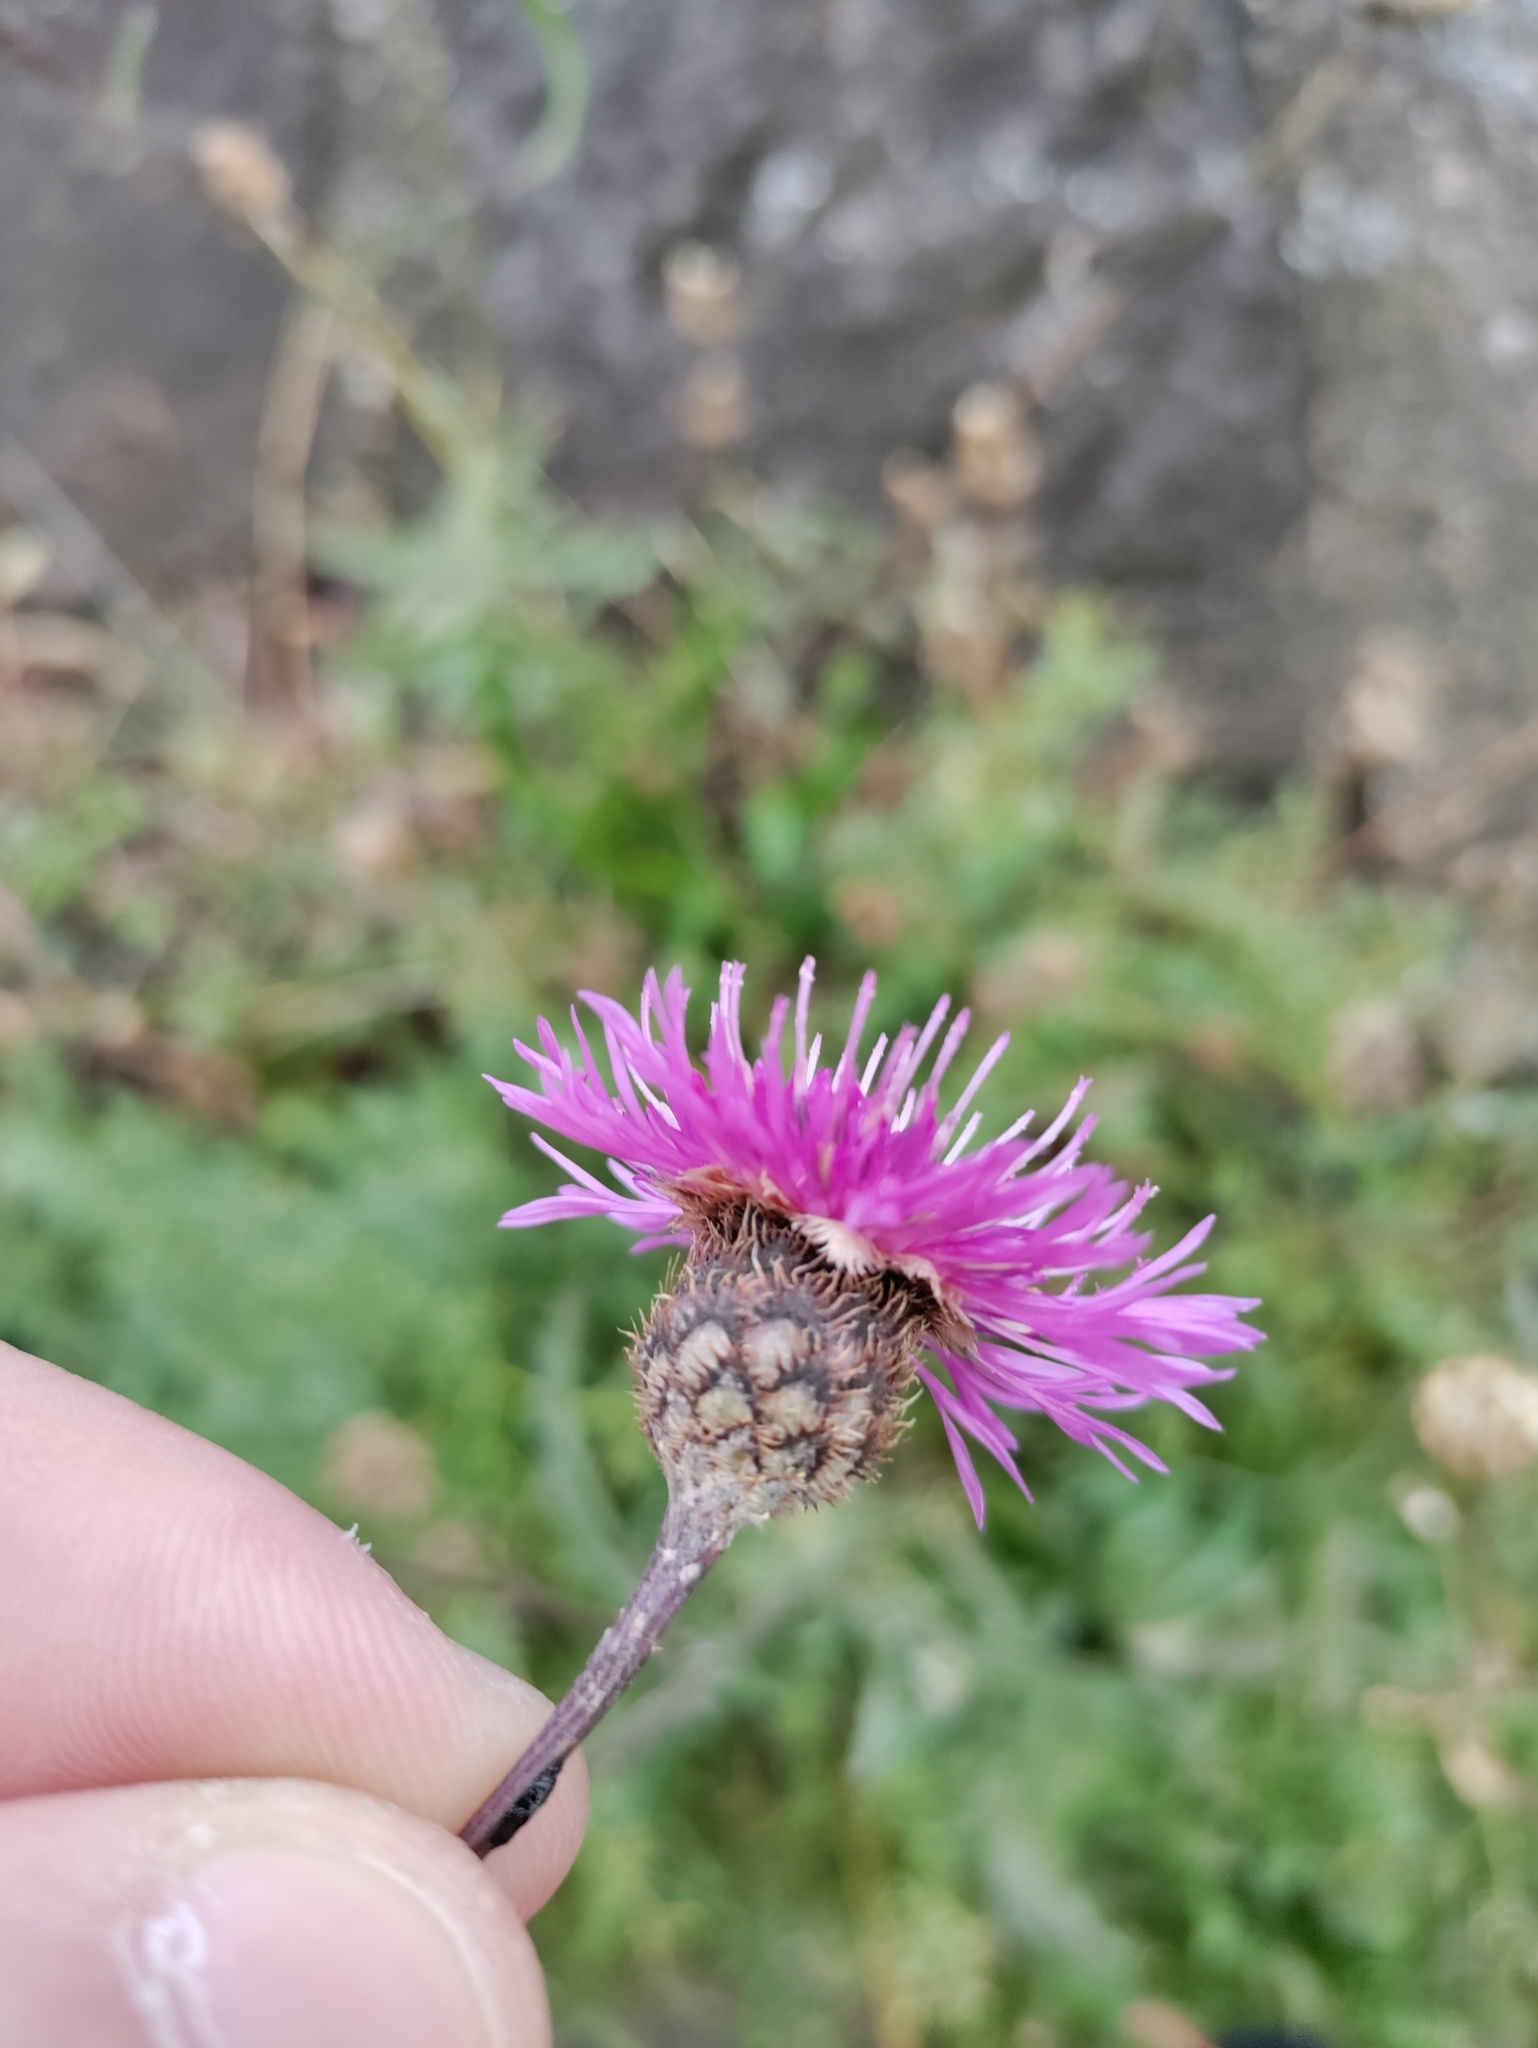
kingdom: Plantae
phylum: Tracheophyta
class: Magnoliopsida
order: Asterales
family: Asteraceae
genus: Centaurea
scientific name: Centaurea scabiosa
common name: Greater knapweed
